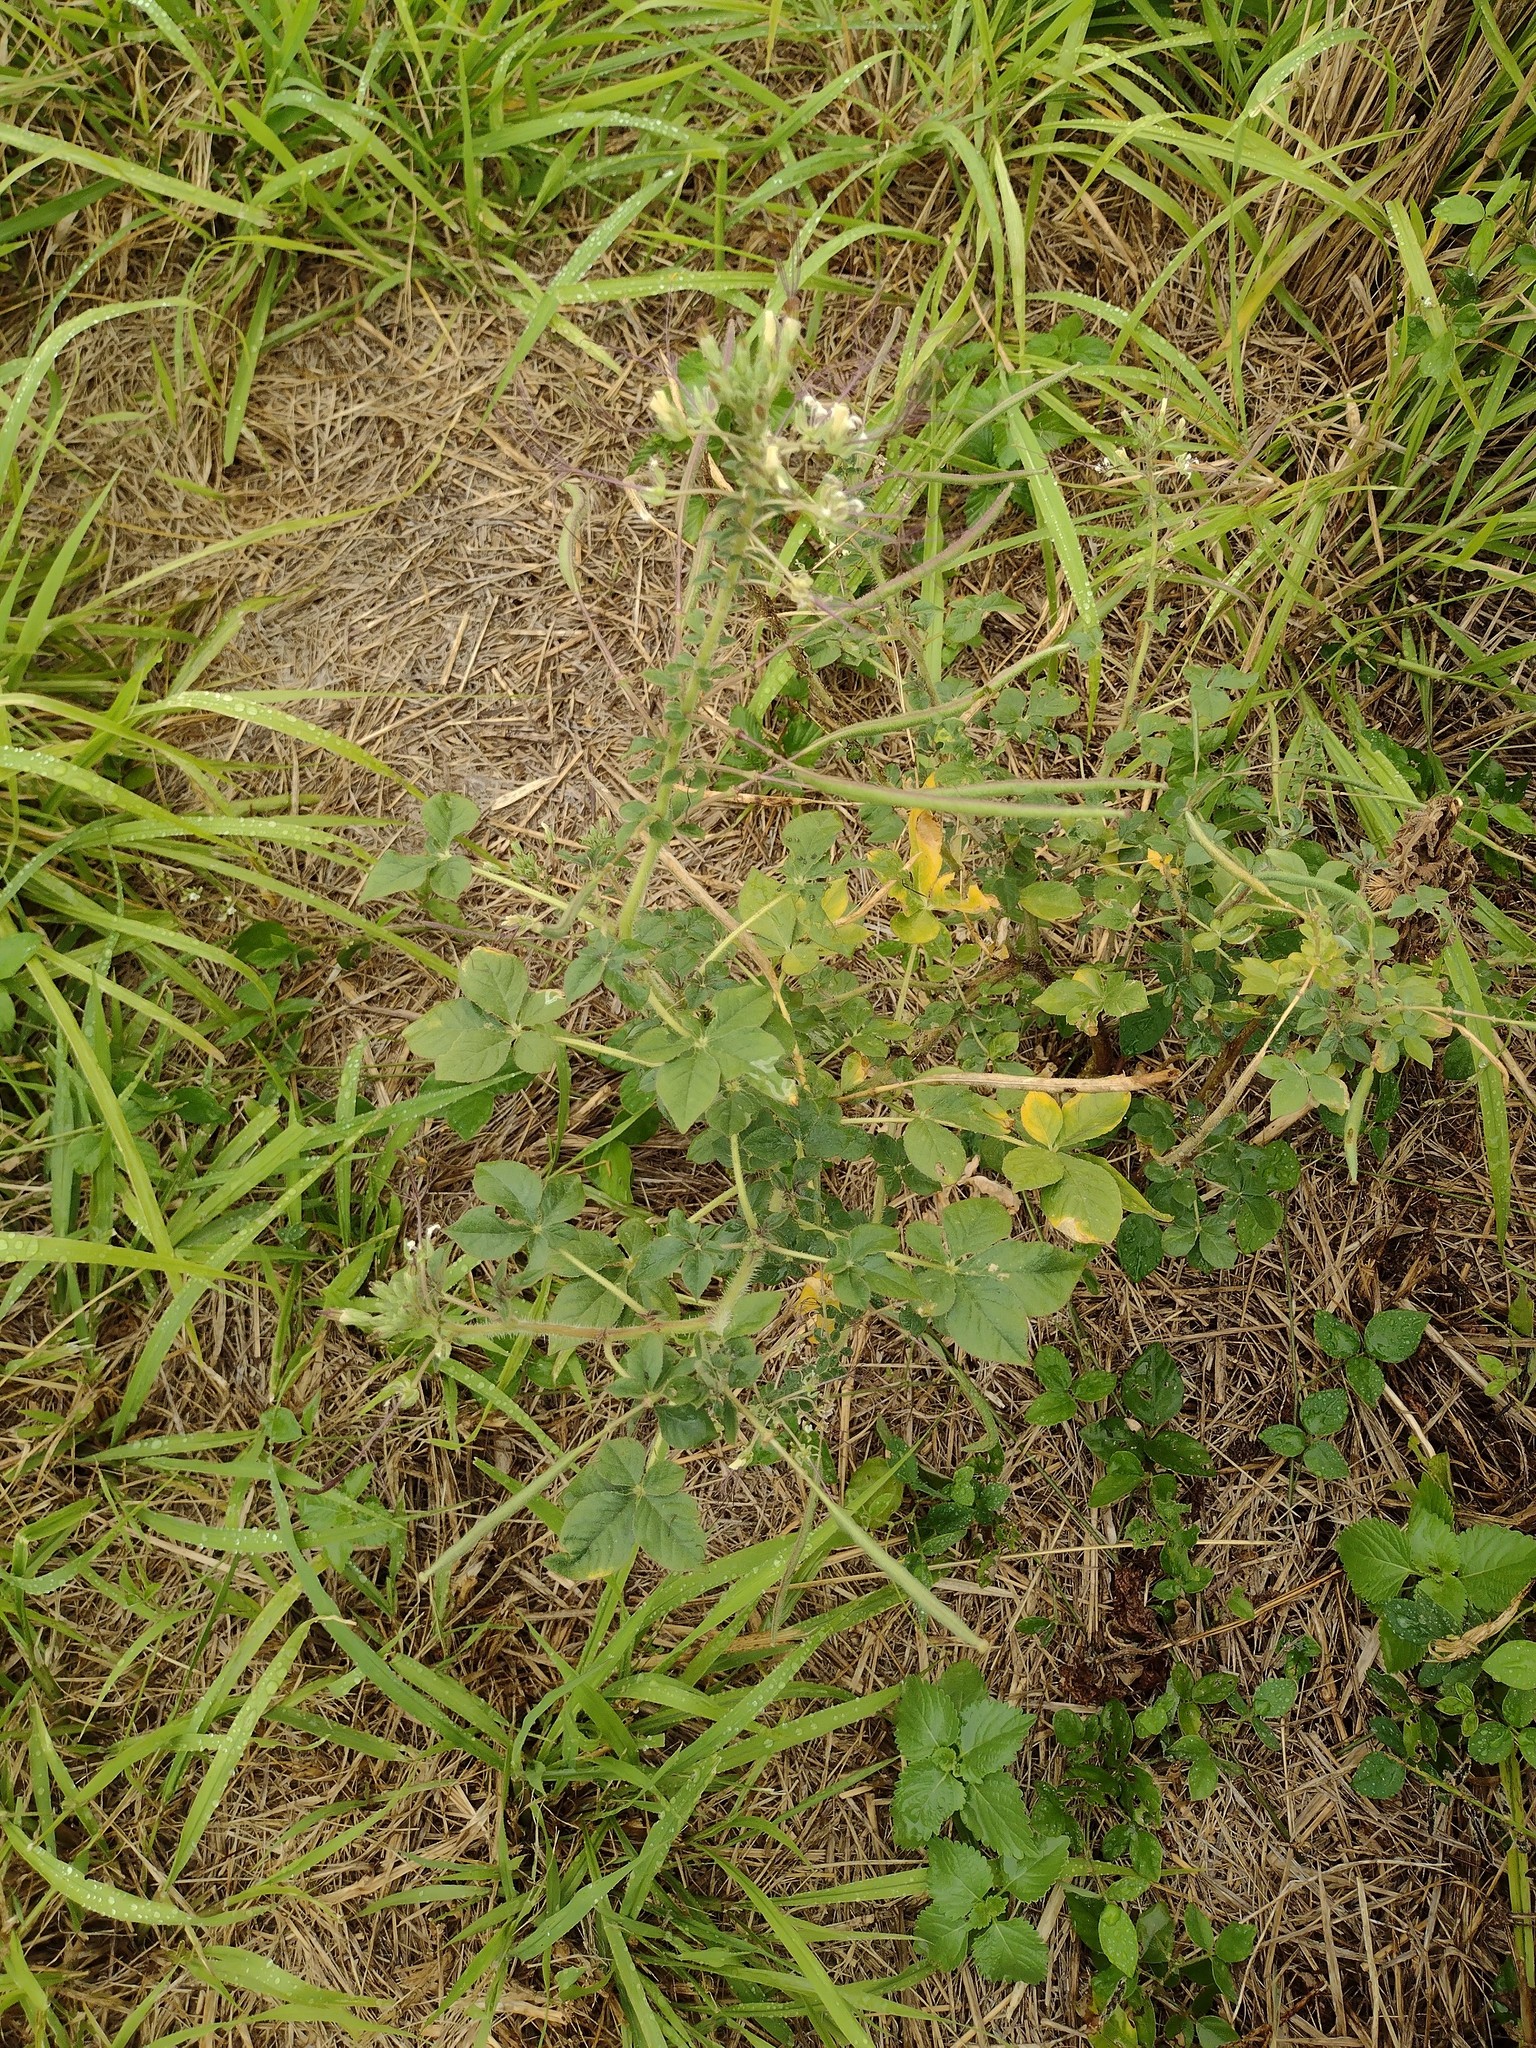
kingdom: Plantae
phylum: Tracheophyta
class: Magnoliopsida
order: Brassicales
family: Cleomaceae
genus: Gynandropsis
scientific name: Gynandropsis gynandra
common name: Spiderwisp
